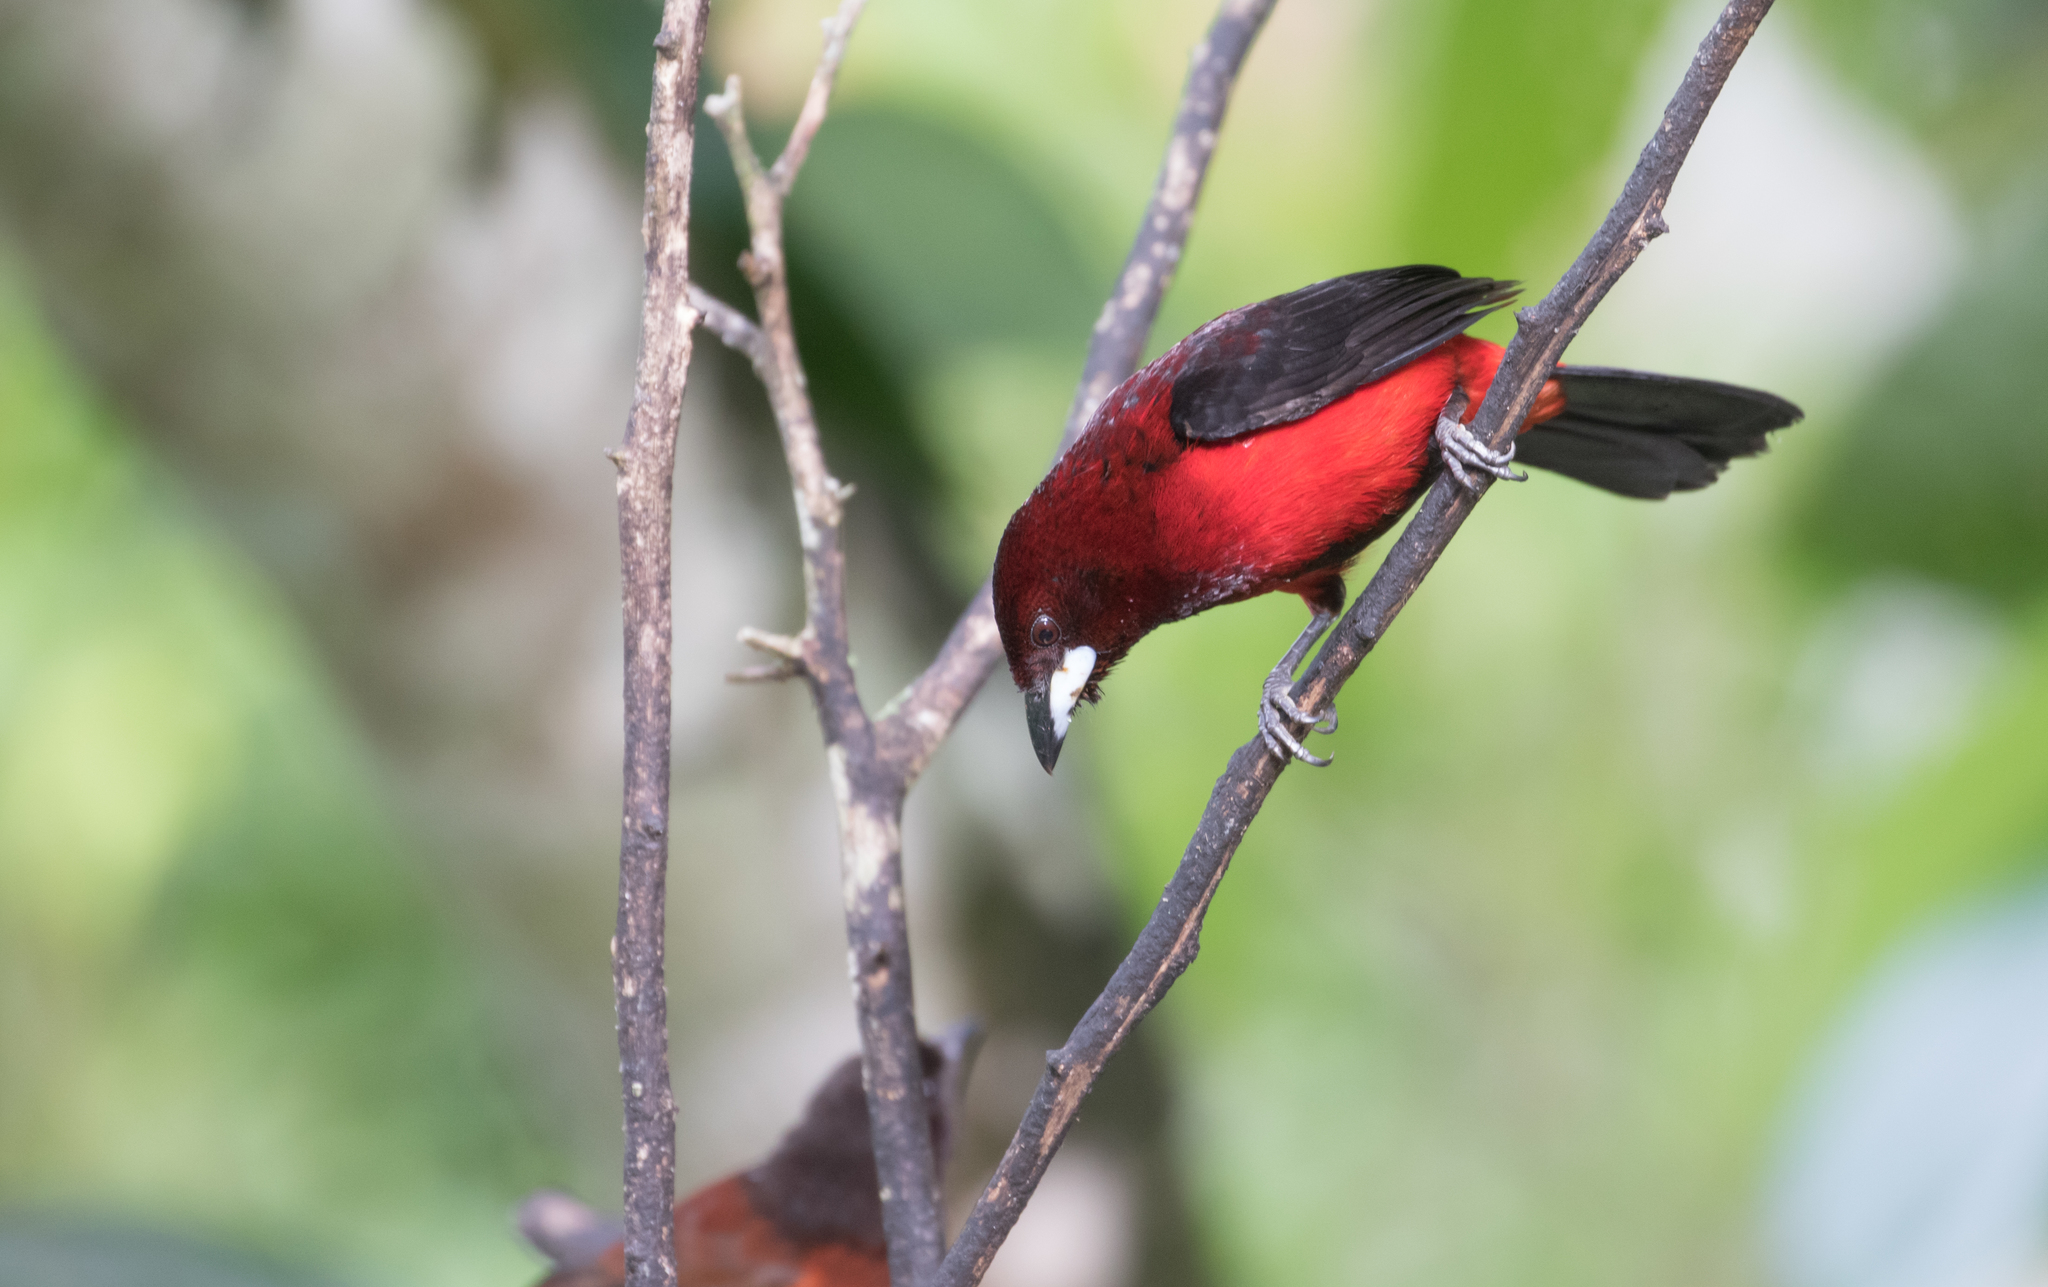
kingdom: Animalia
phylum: Chordata
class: Aves
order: Passeriformes
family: Thraupidae
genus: Ramphocelus
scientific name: Ramphocelus dimidiatus
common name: Crimson-backed tanager
